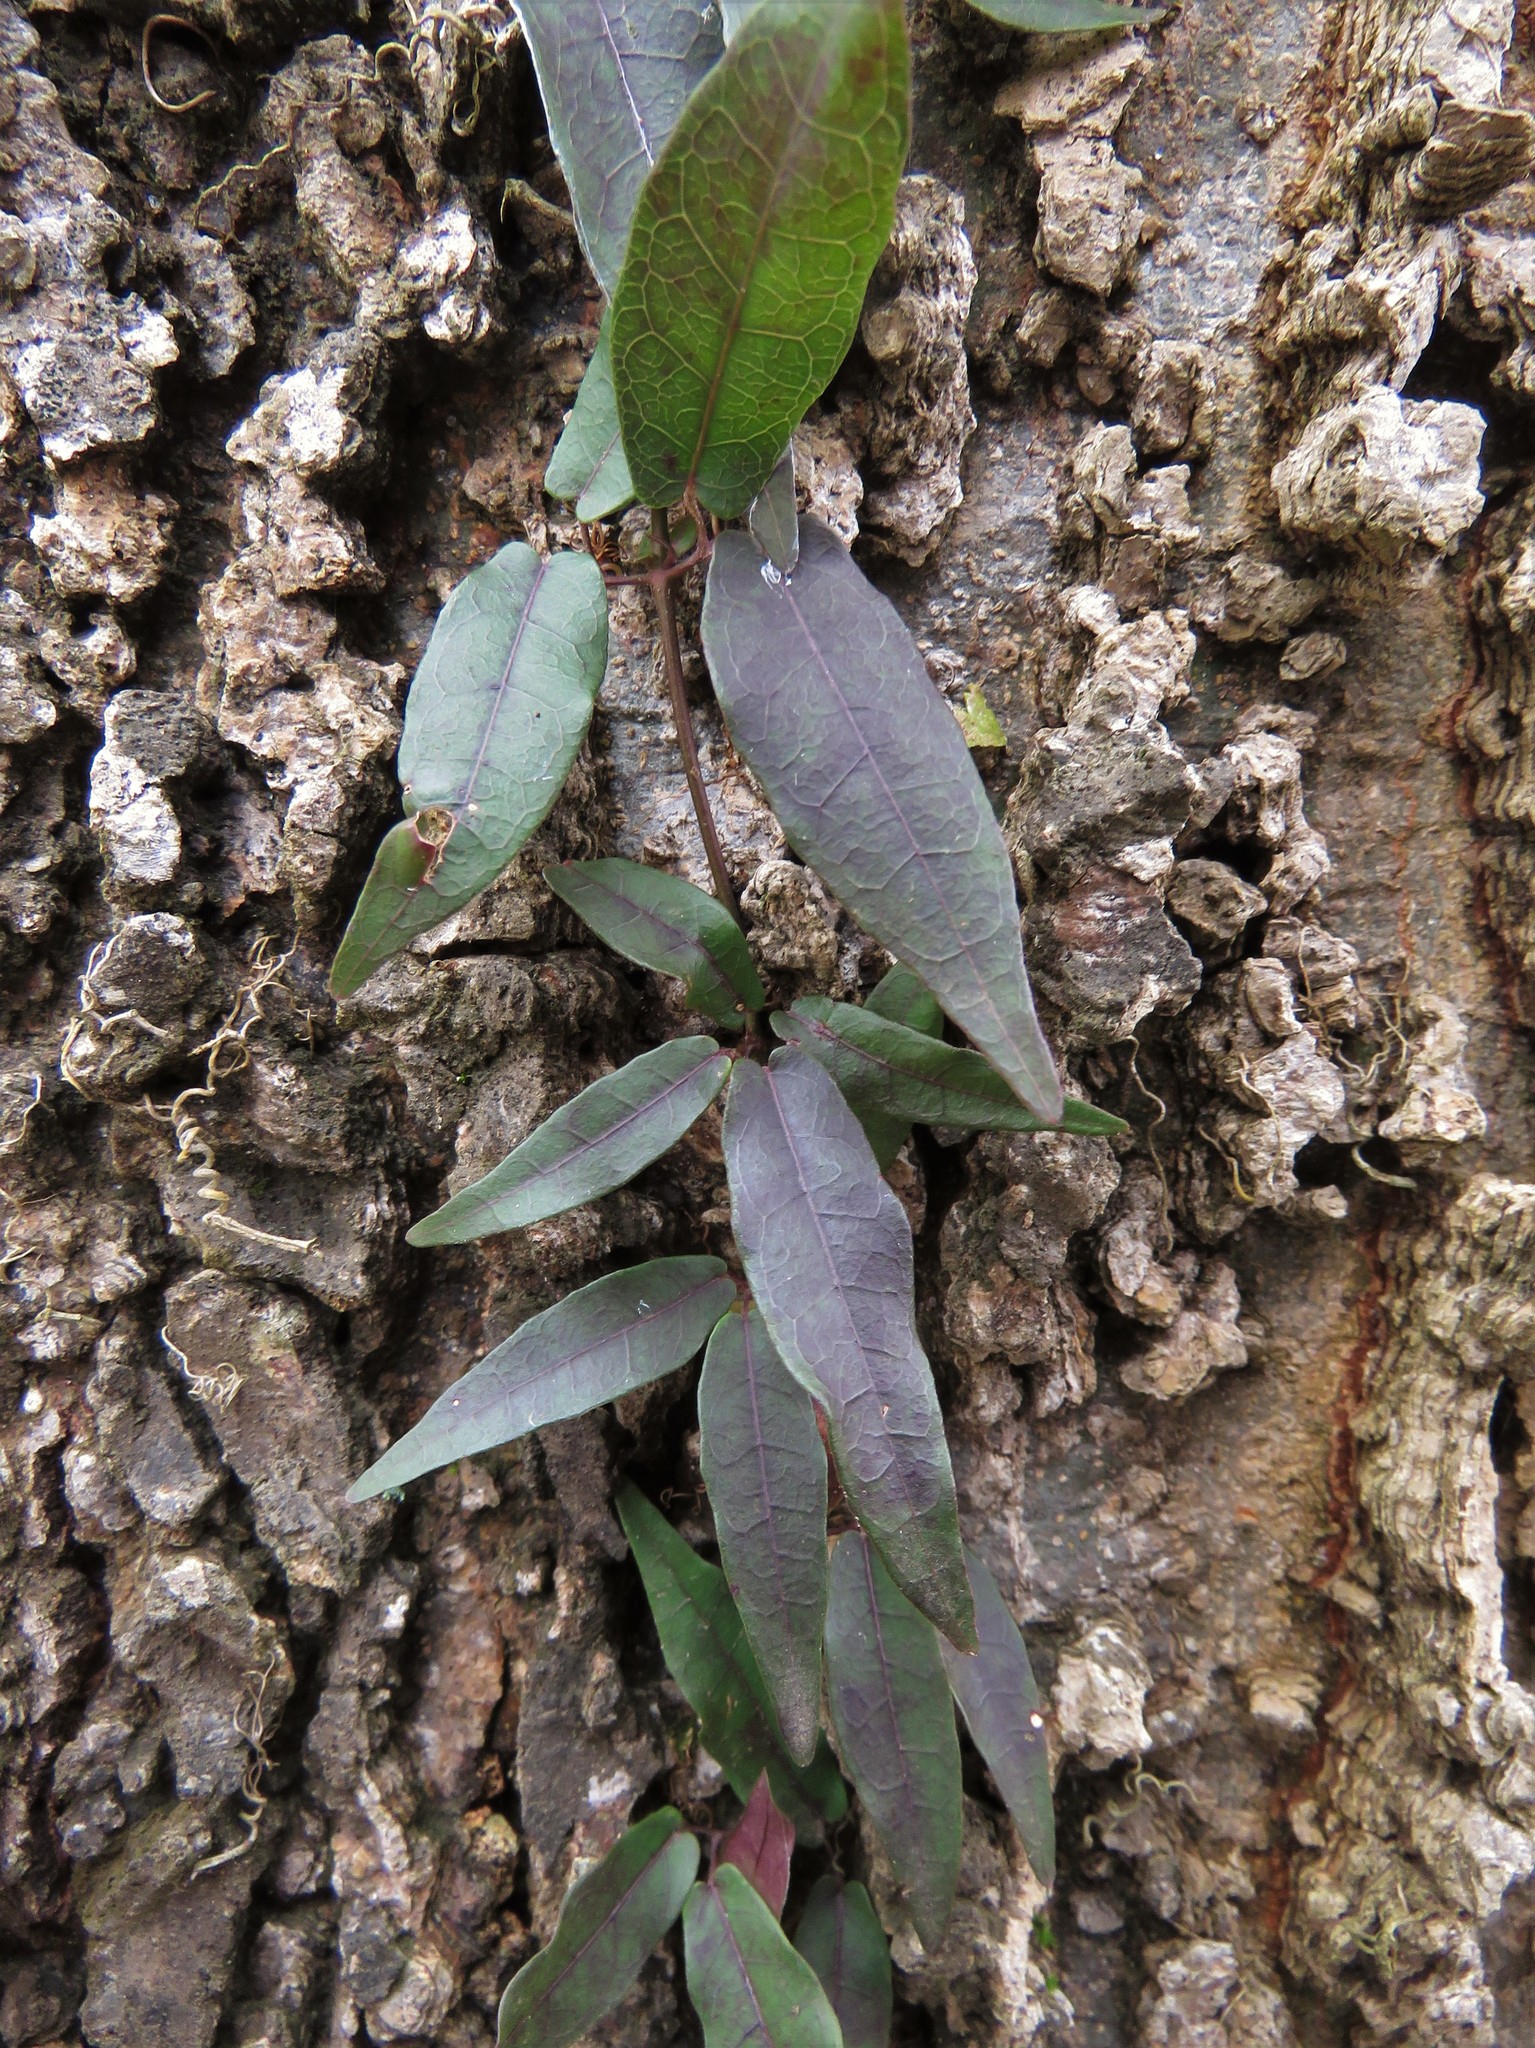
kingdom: Plantae
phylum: Tracheophyta
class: Magnoliopsida
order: Lamiales
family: Bignoniaceae
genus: Bignonia
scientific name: Bignonia capreolata
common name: Crossvine
